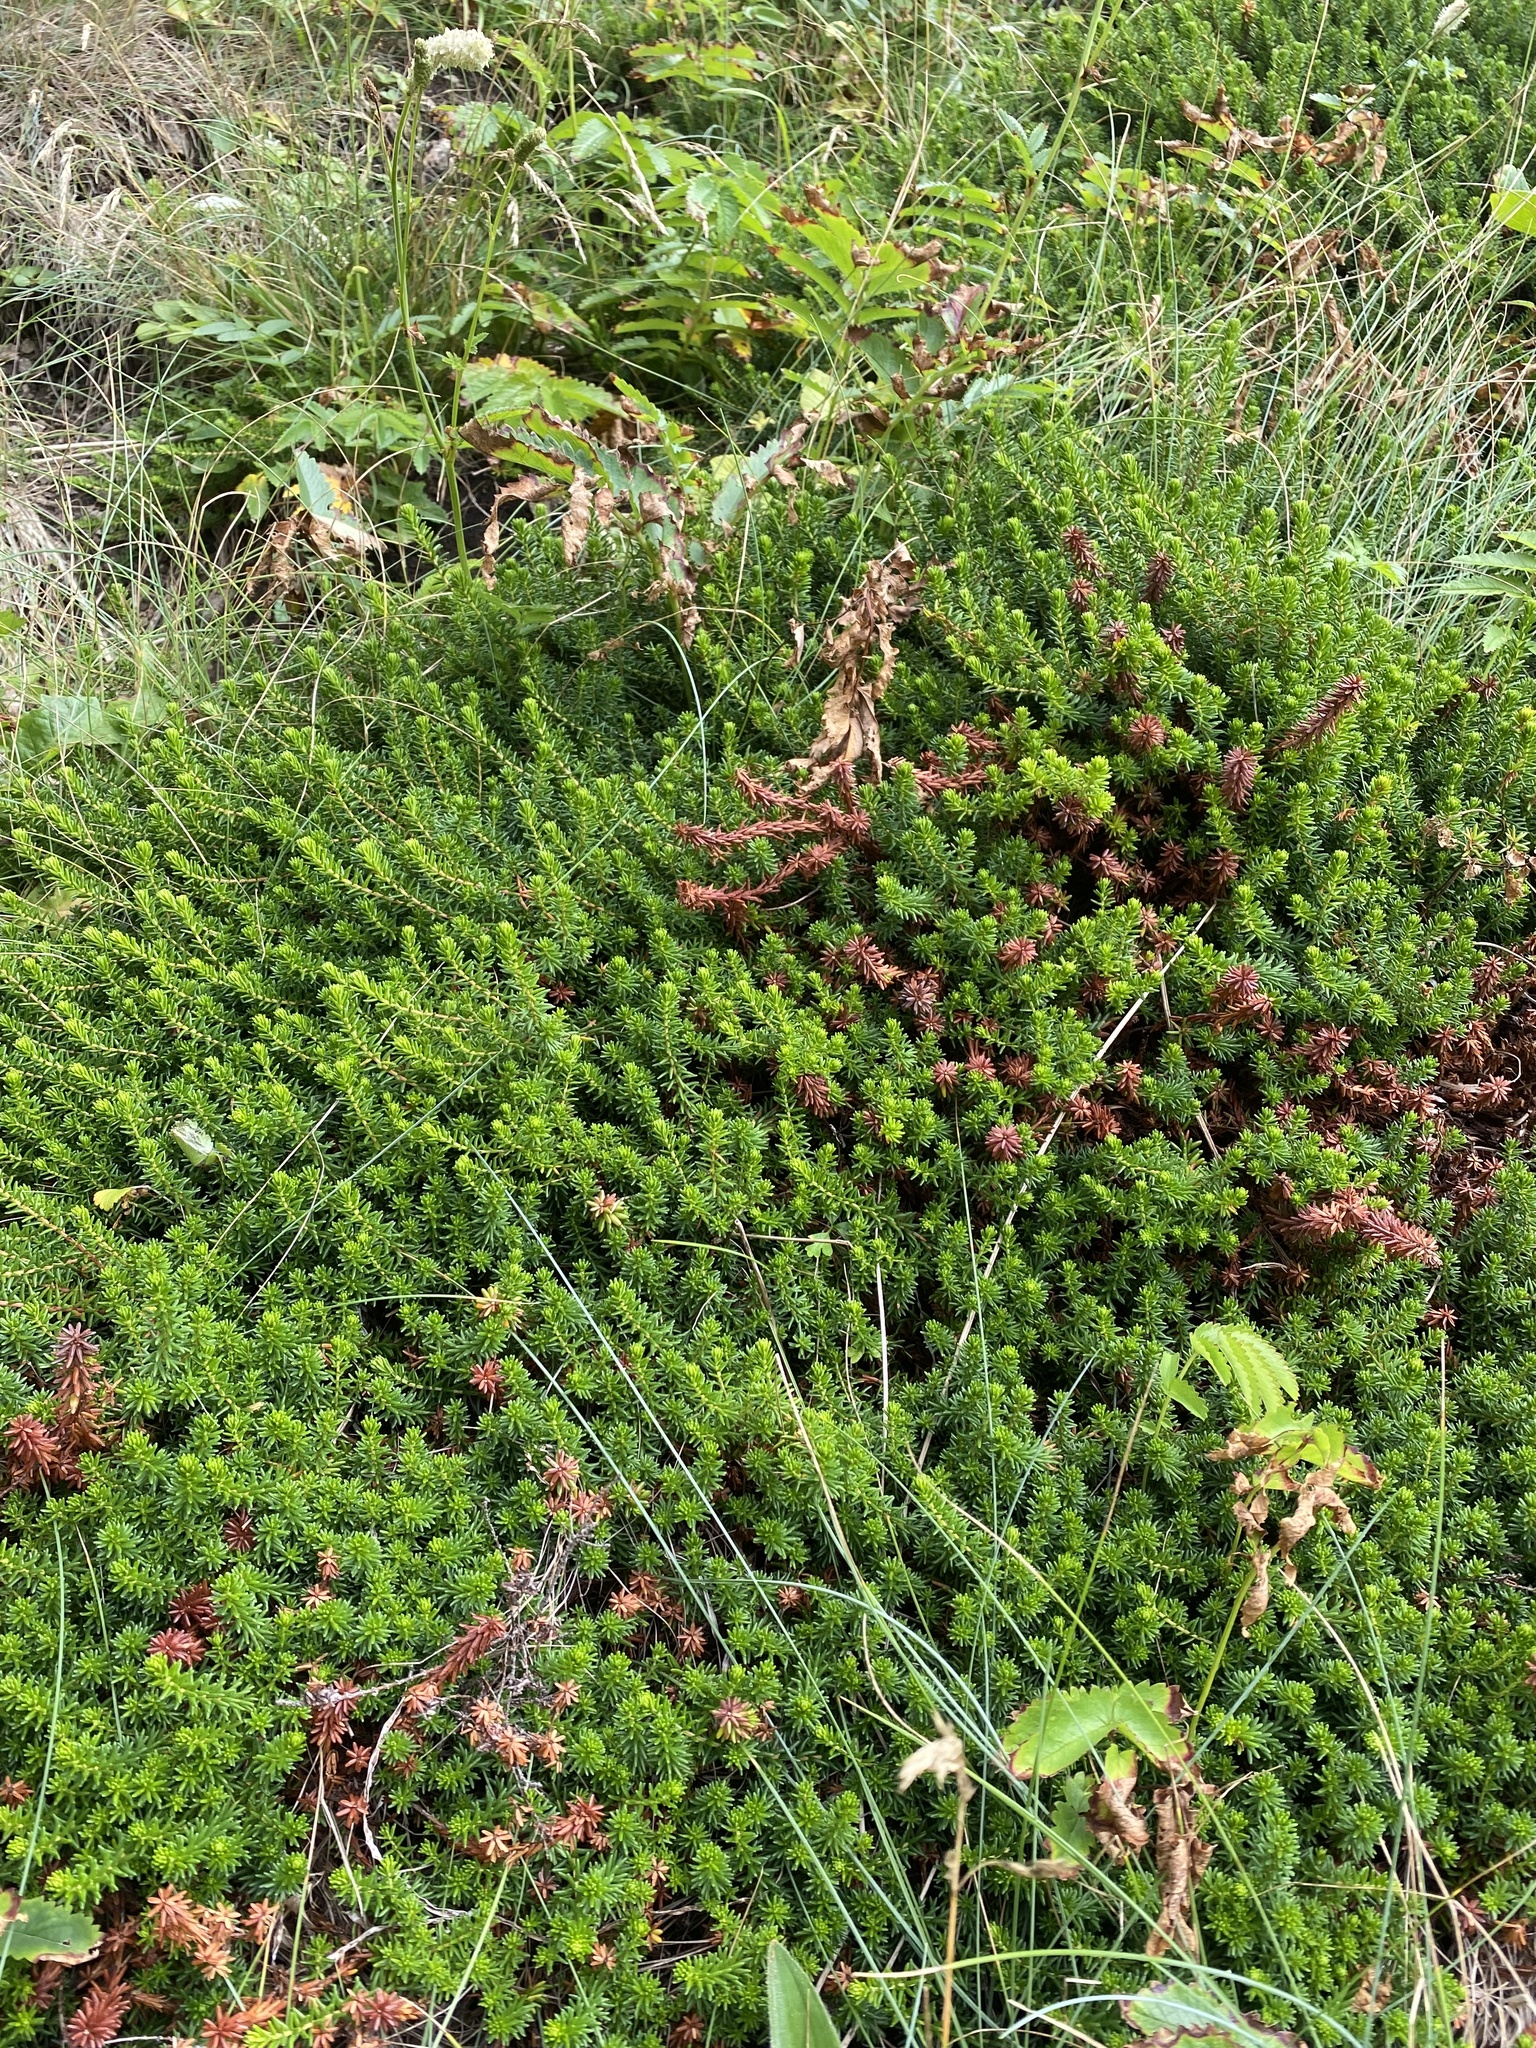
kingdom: Plantae
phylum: Tracheophyta
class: Magnoliopsida
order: Ericales
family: Ericaceae
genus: Empetrum
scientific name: Empetrum nigrum
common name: Black crowberry
